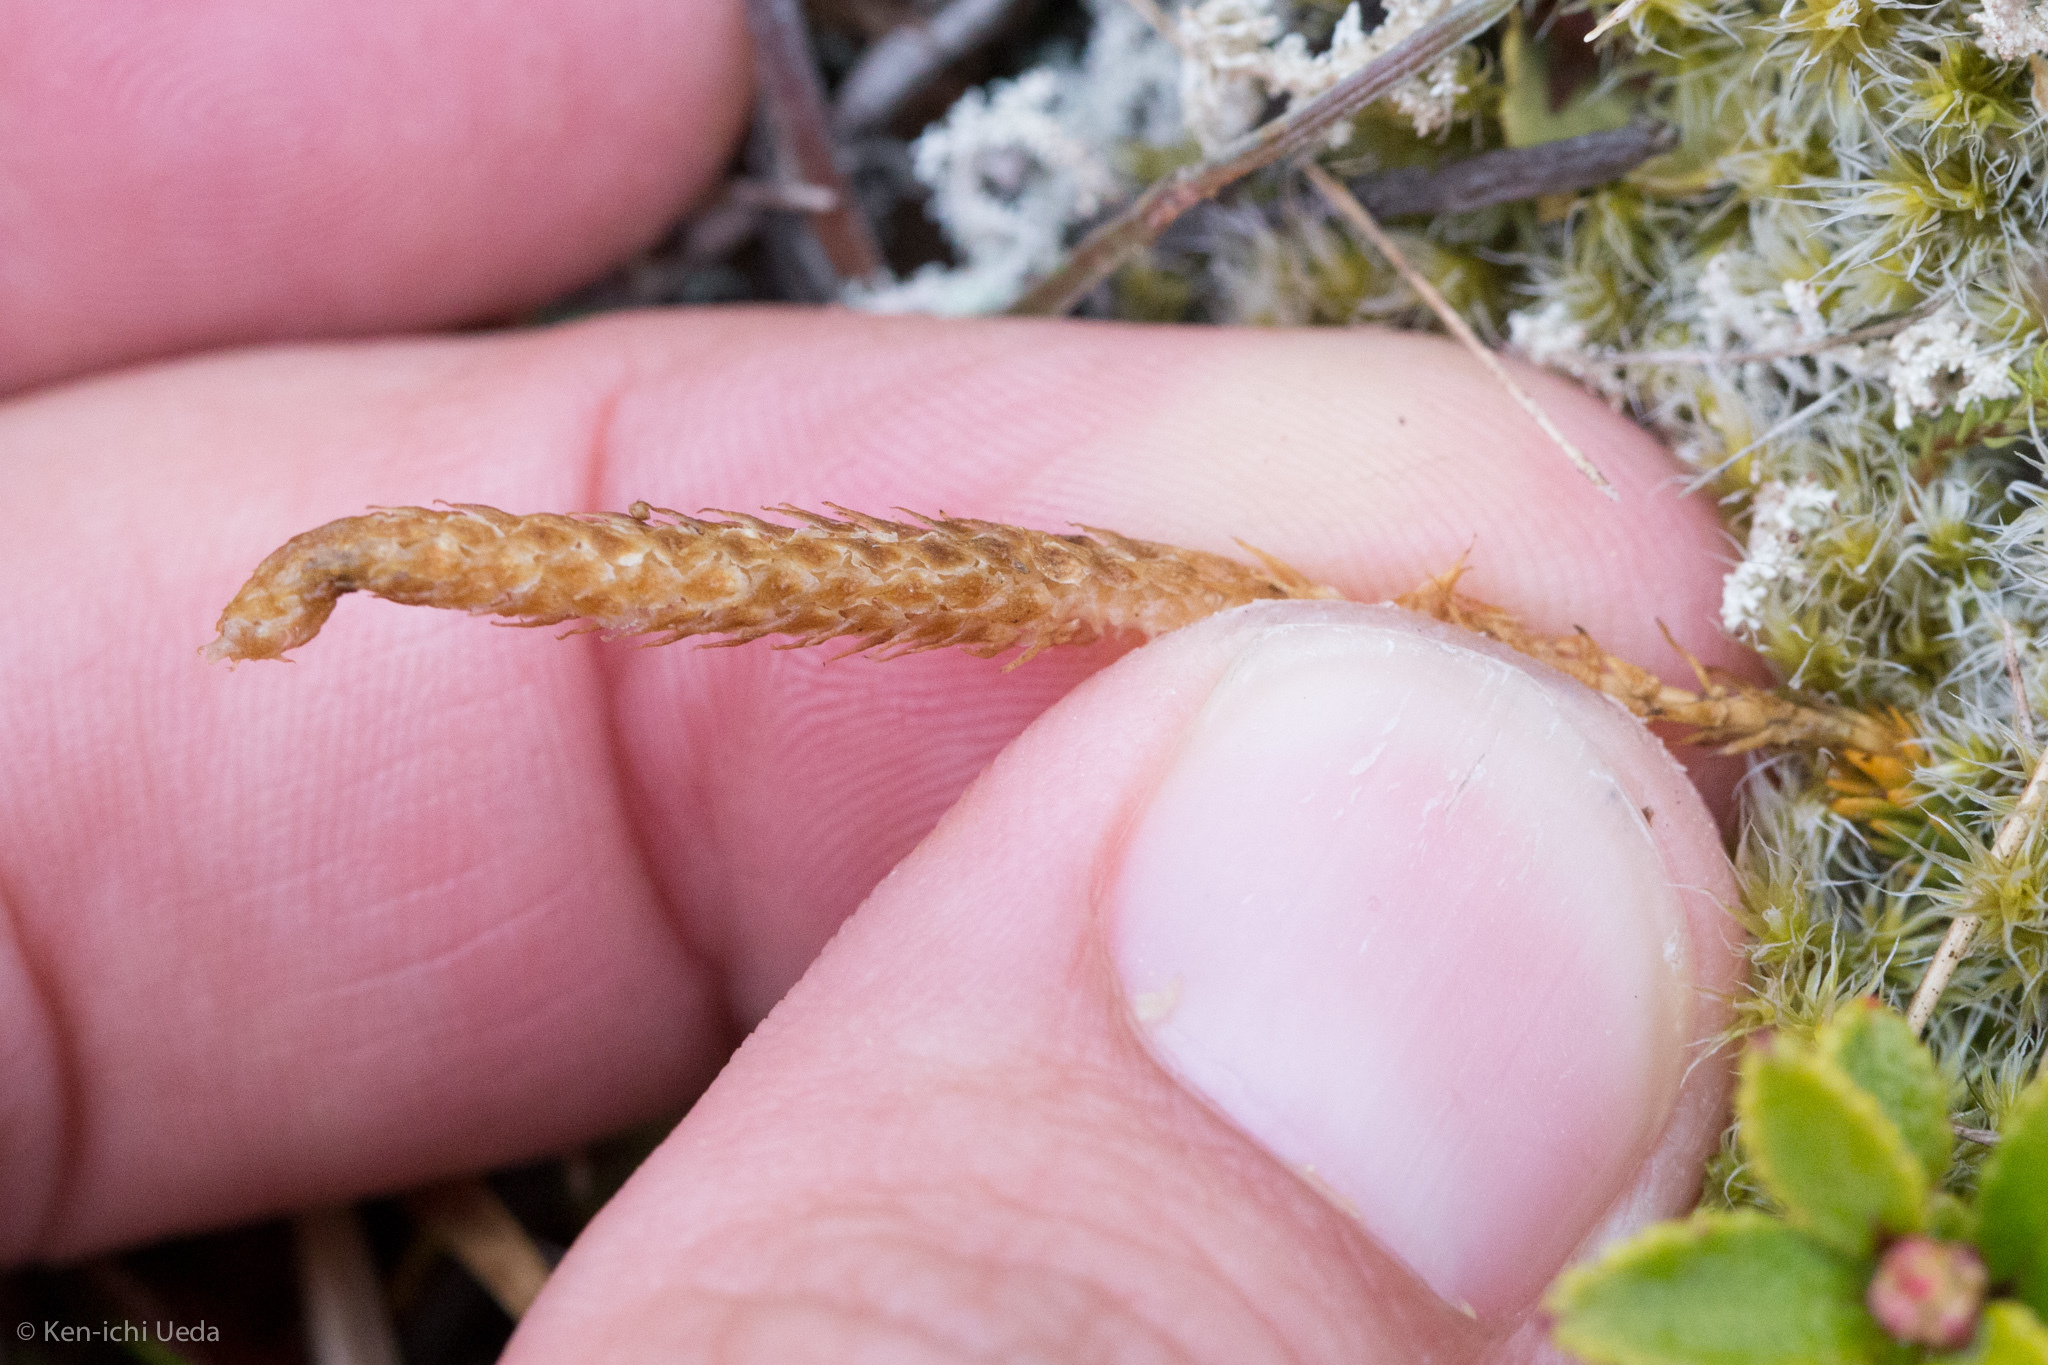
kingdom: Plantae
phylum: Tracheophyta
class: Lycopodiopsida
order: Lycopodiales
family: Lycopodiaceae
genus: Austrolycopodium
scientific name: Austrolycopodium fastigiatum
